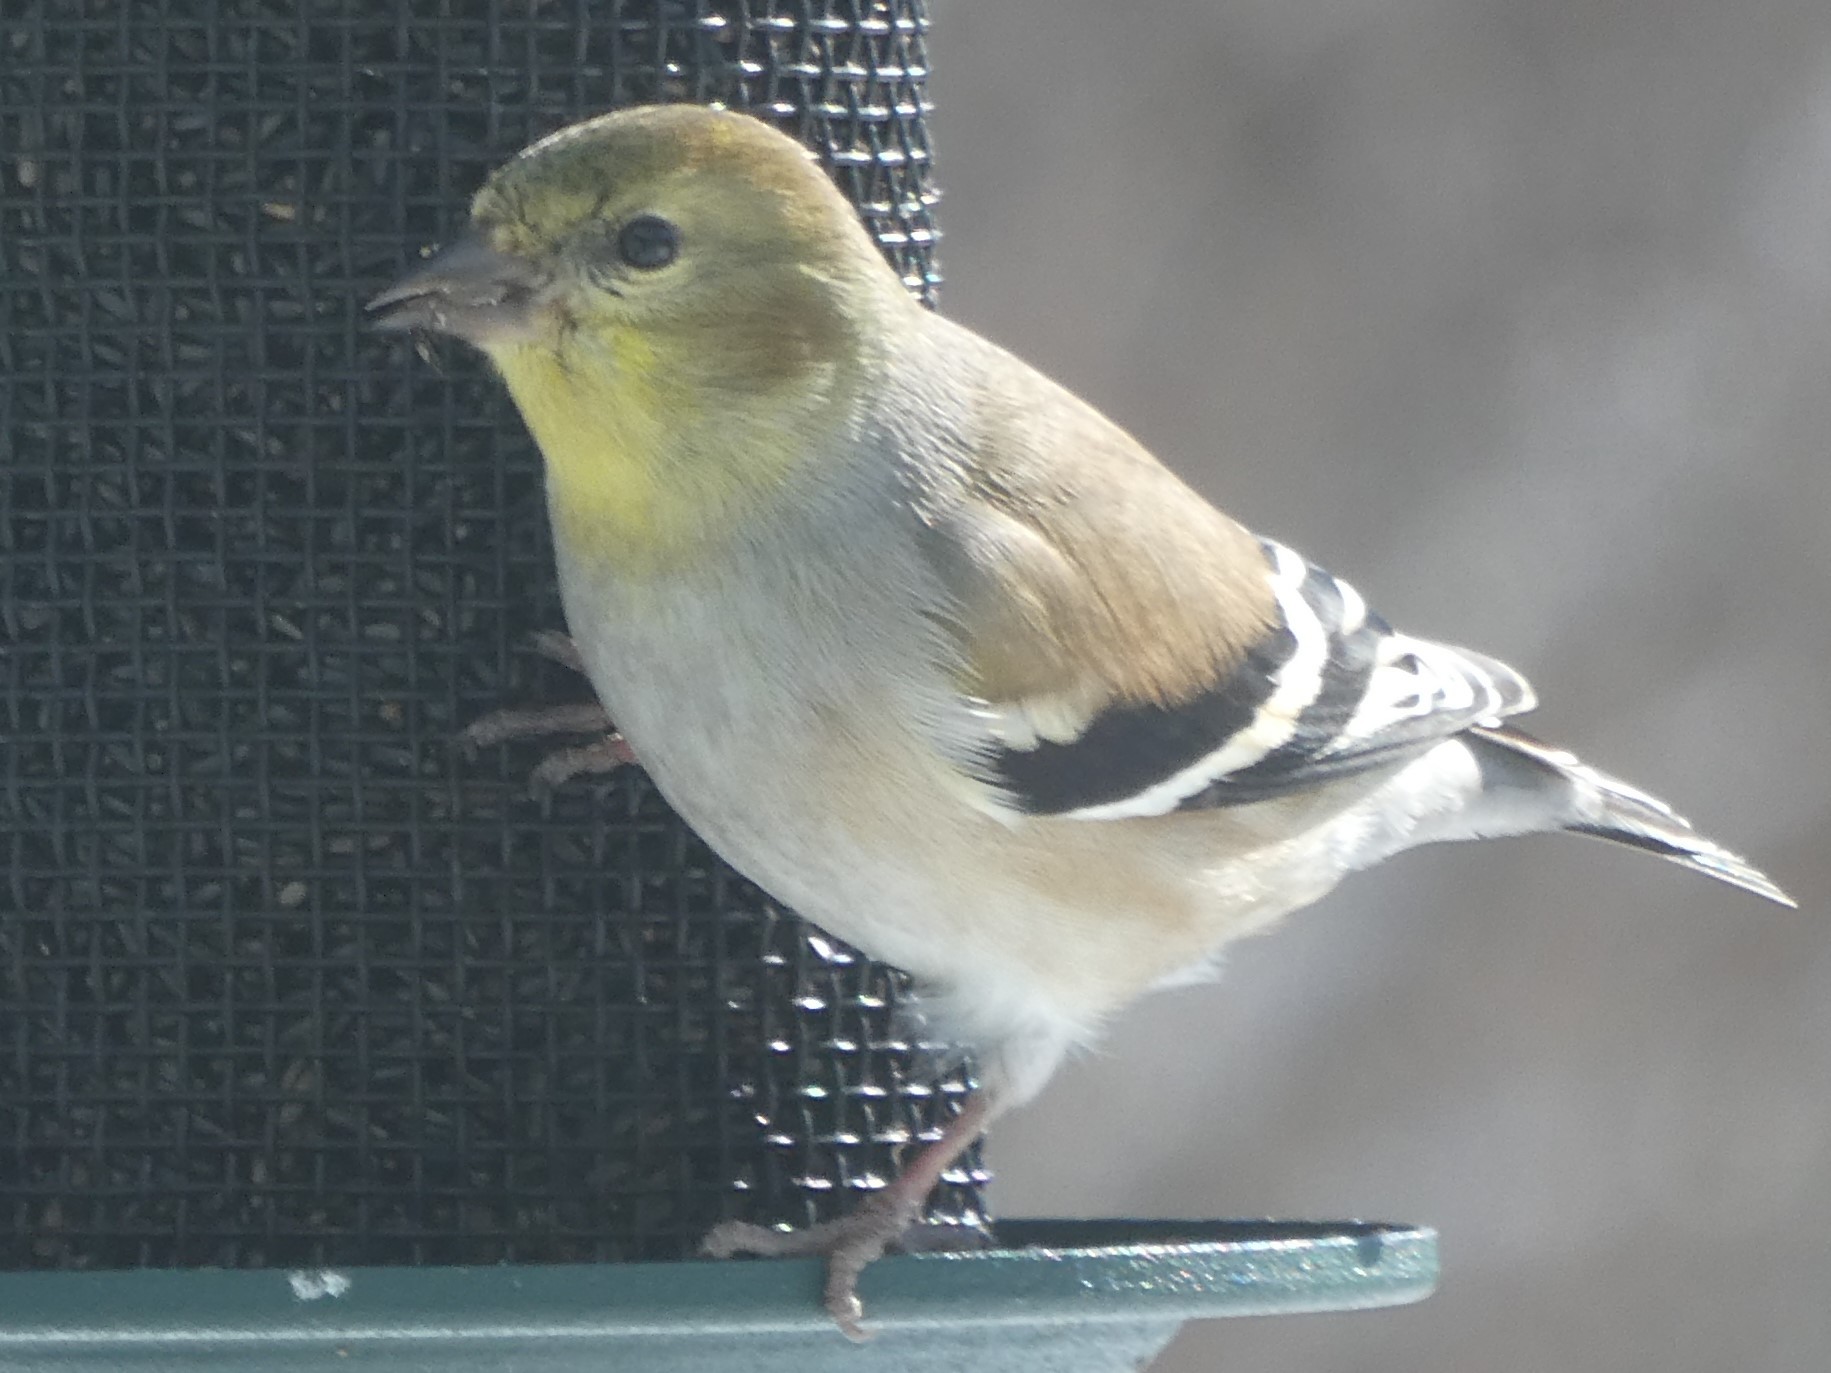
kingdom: Animalia
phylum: Chordata
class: Aves
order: Passeriformes
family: Fringillidae
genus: Spinus
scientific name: Spinus tristis
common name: American goldfinch
